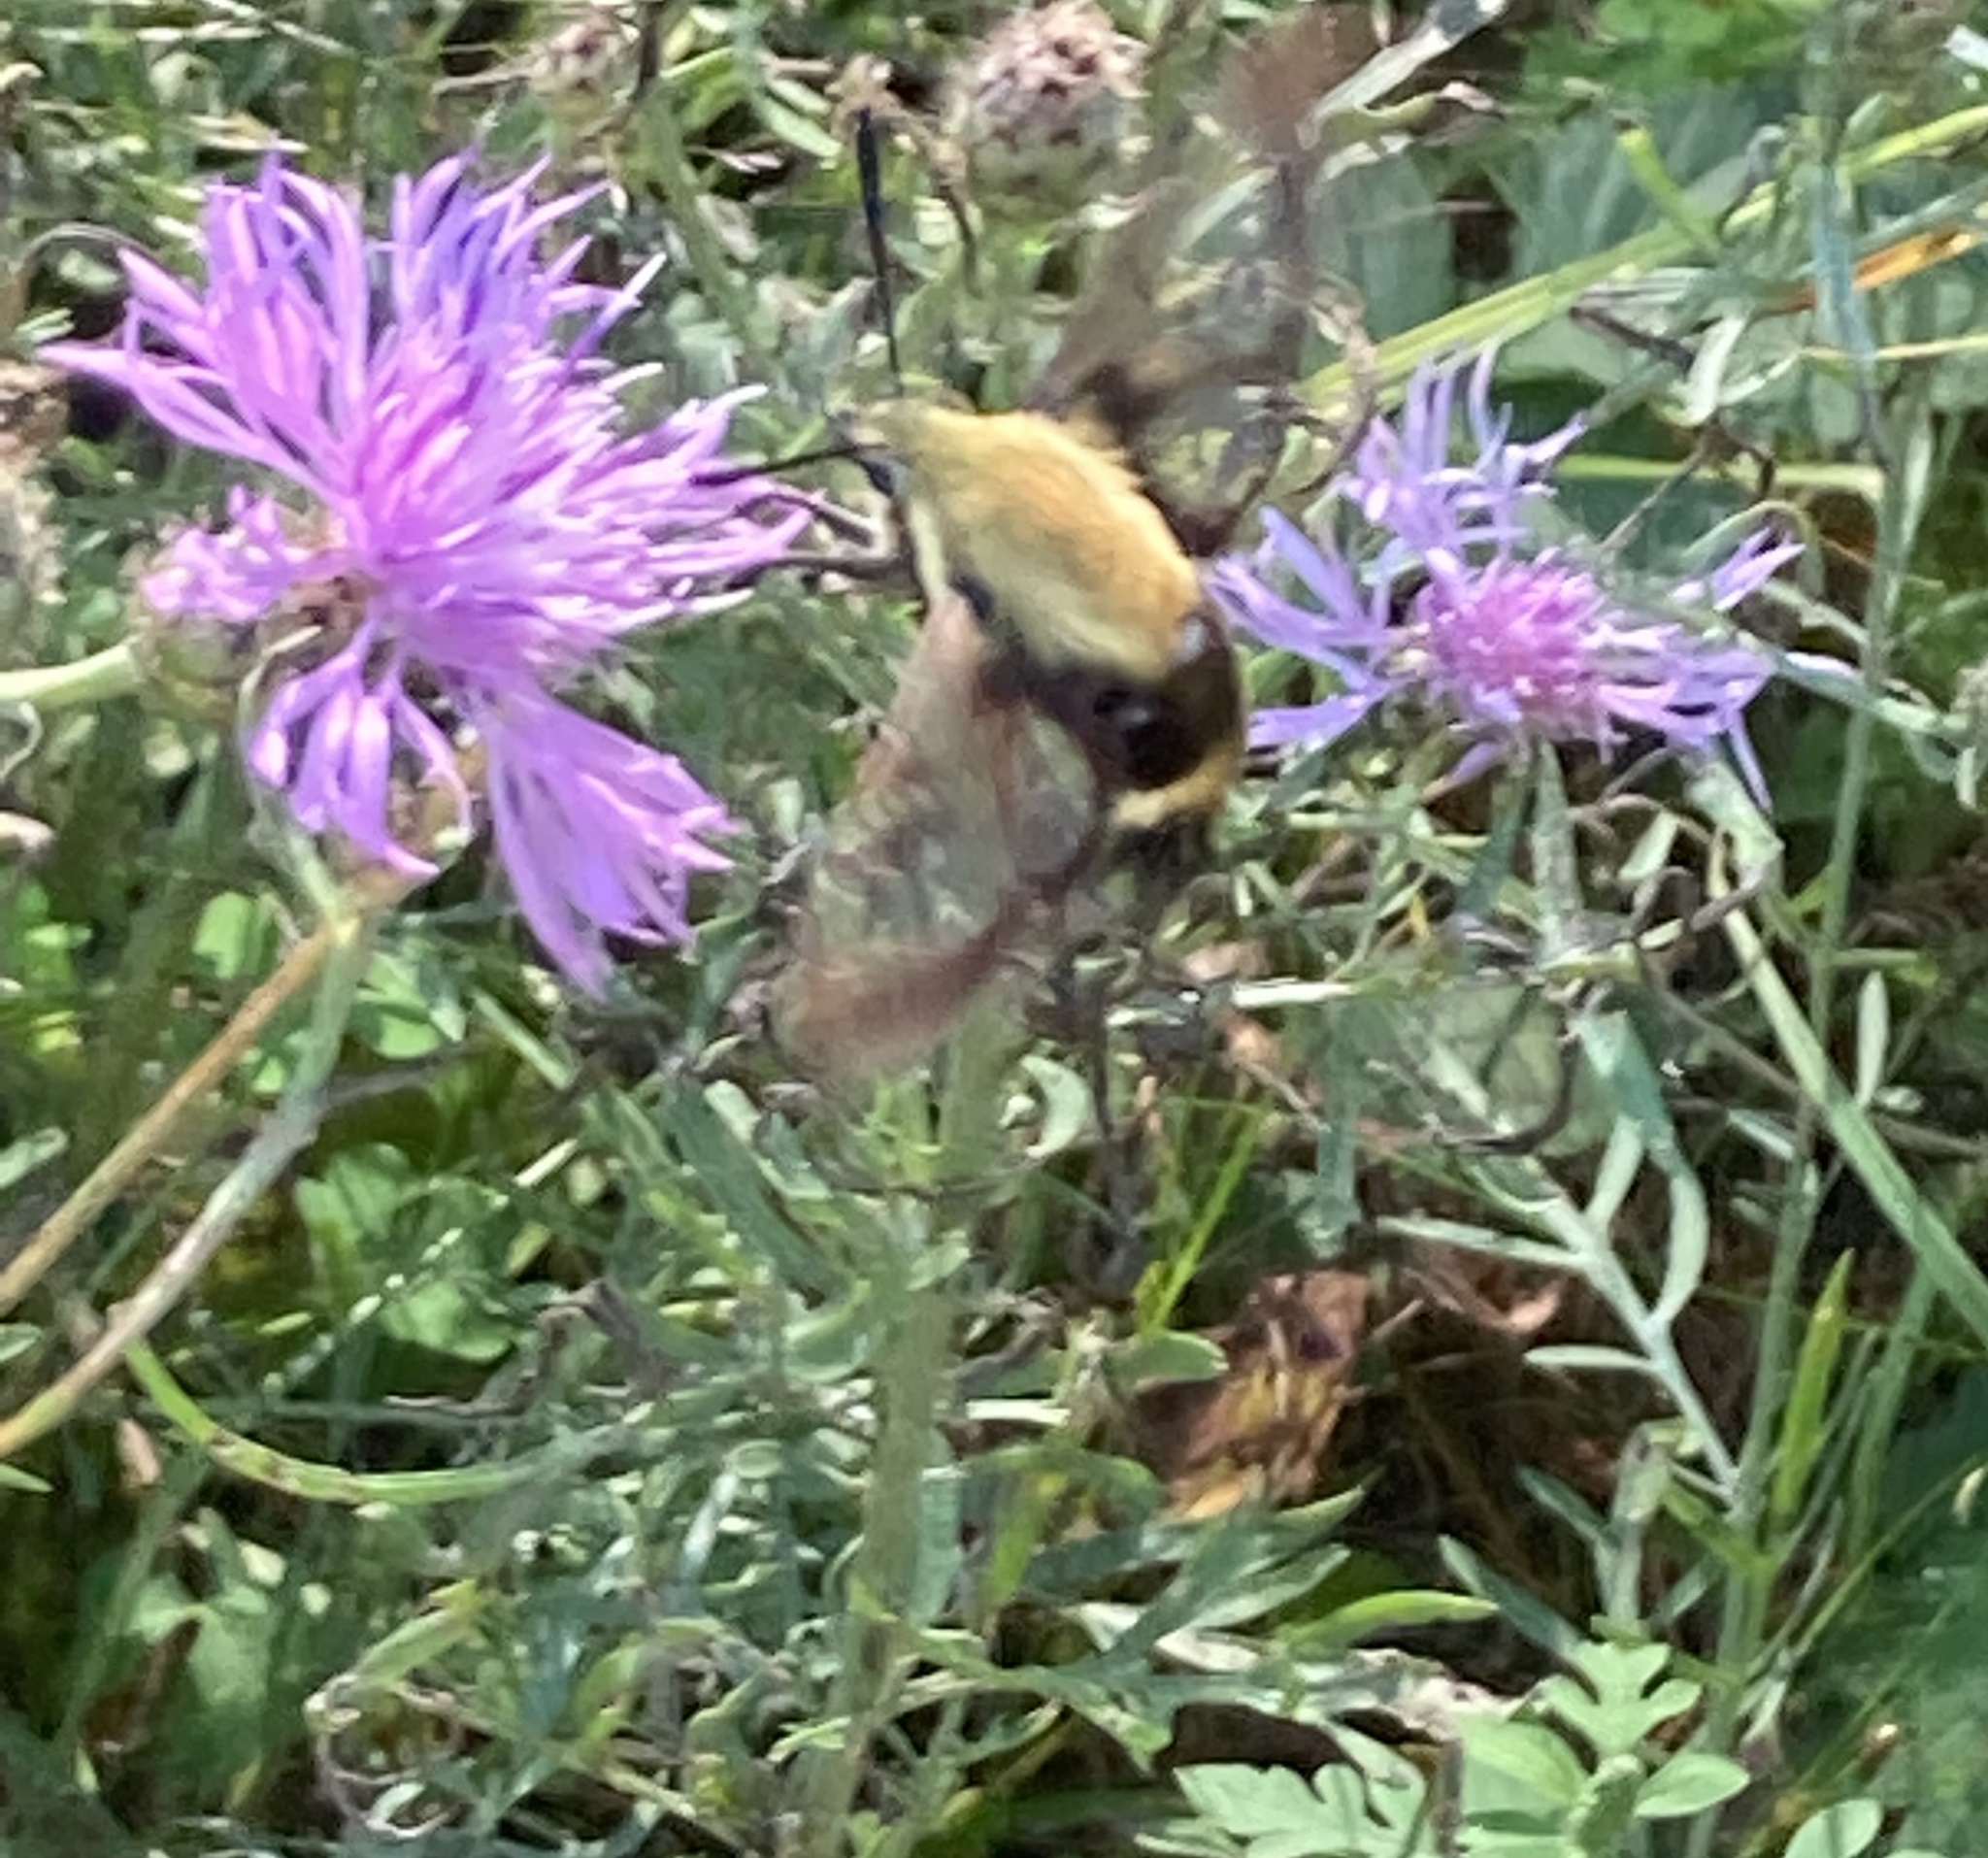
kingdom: Animalia
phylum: Arthropoda
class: Insecta
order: Lepidoptera
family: Sphingidae
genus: Hemaris
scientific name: Hemaris diffinis
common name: Bumblebee moth
